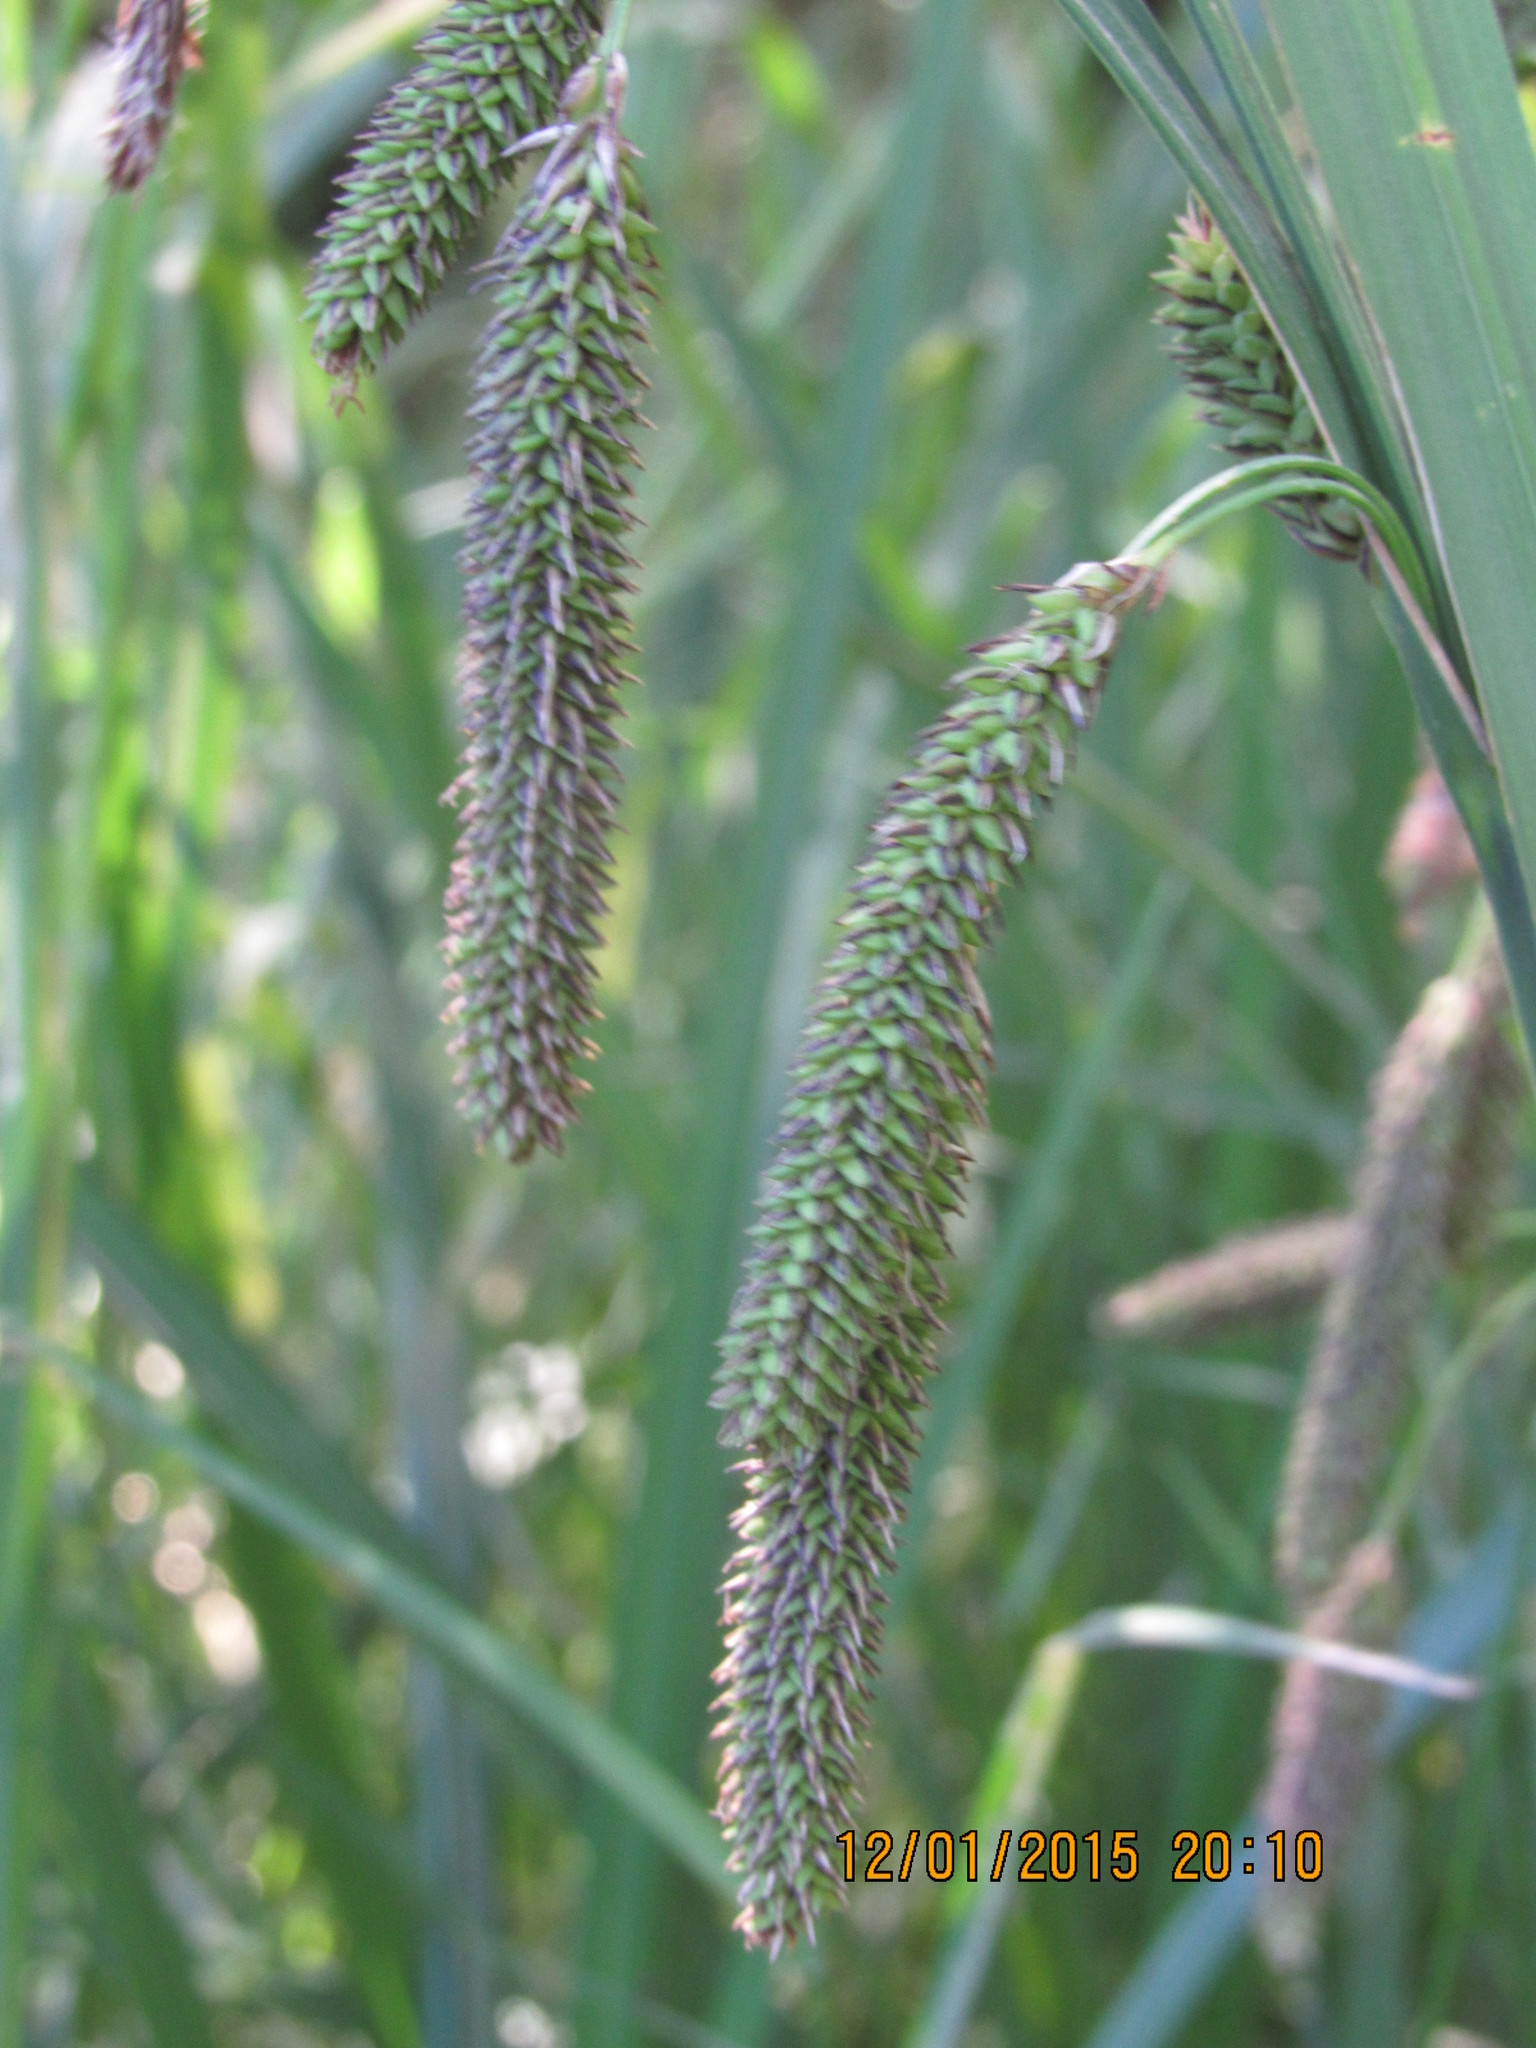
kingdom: Plantae
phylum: Tracheophyta
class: Liliopsida
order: Poales
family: Cyperaceae
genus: Carex
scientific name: Carex darwinii
